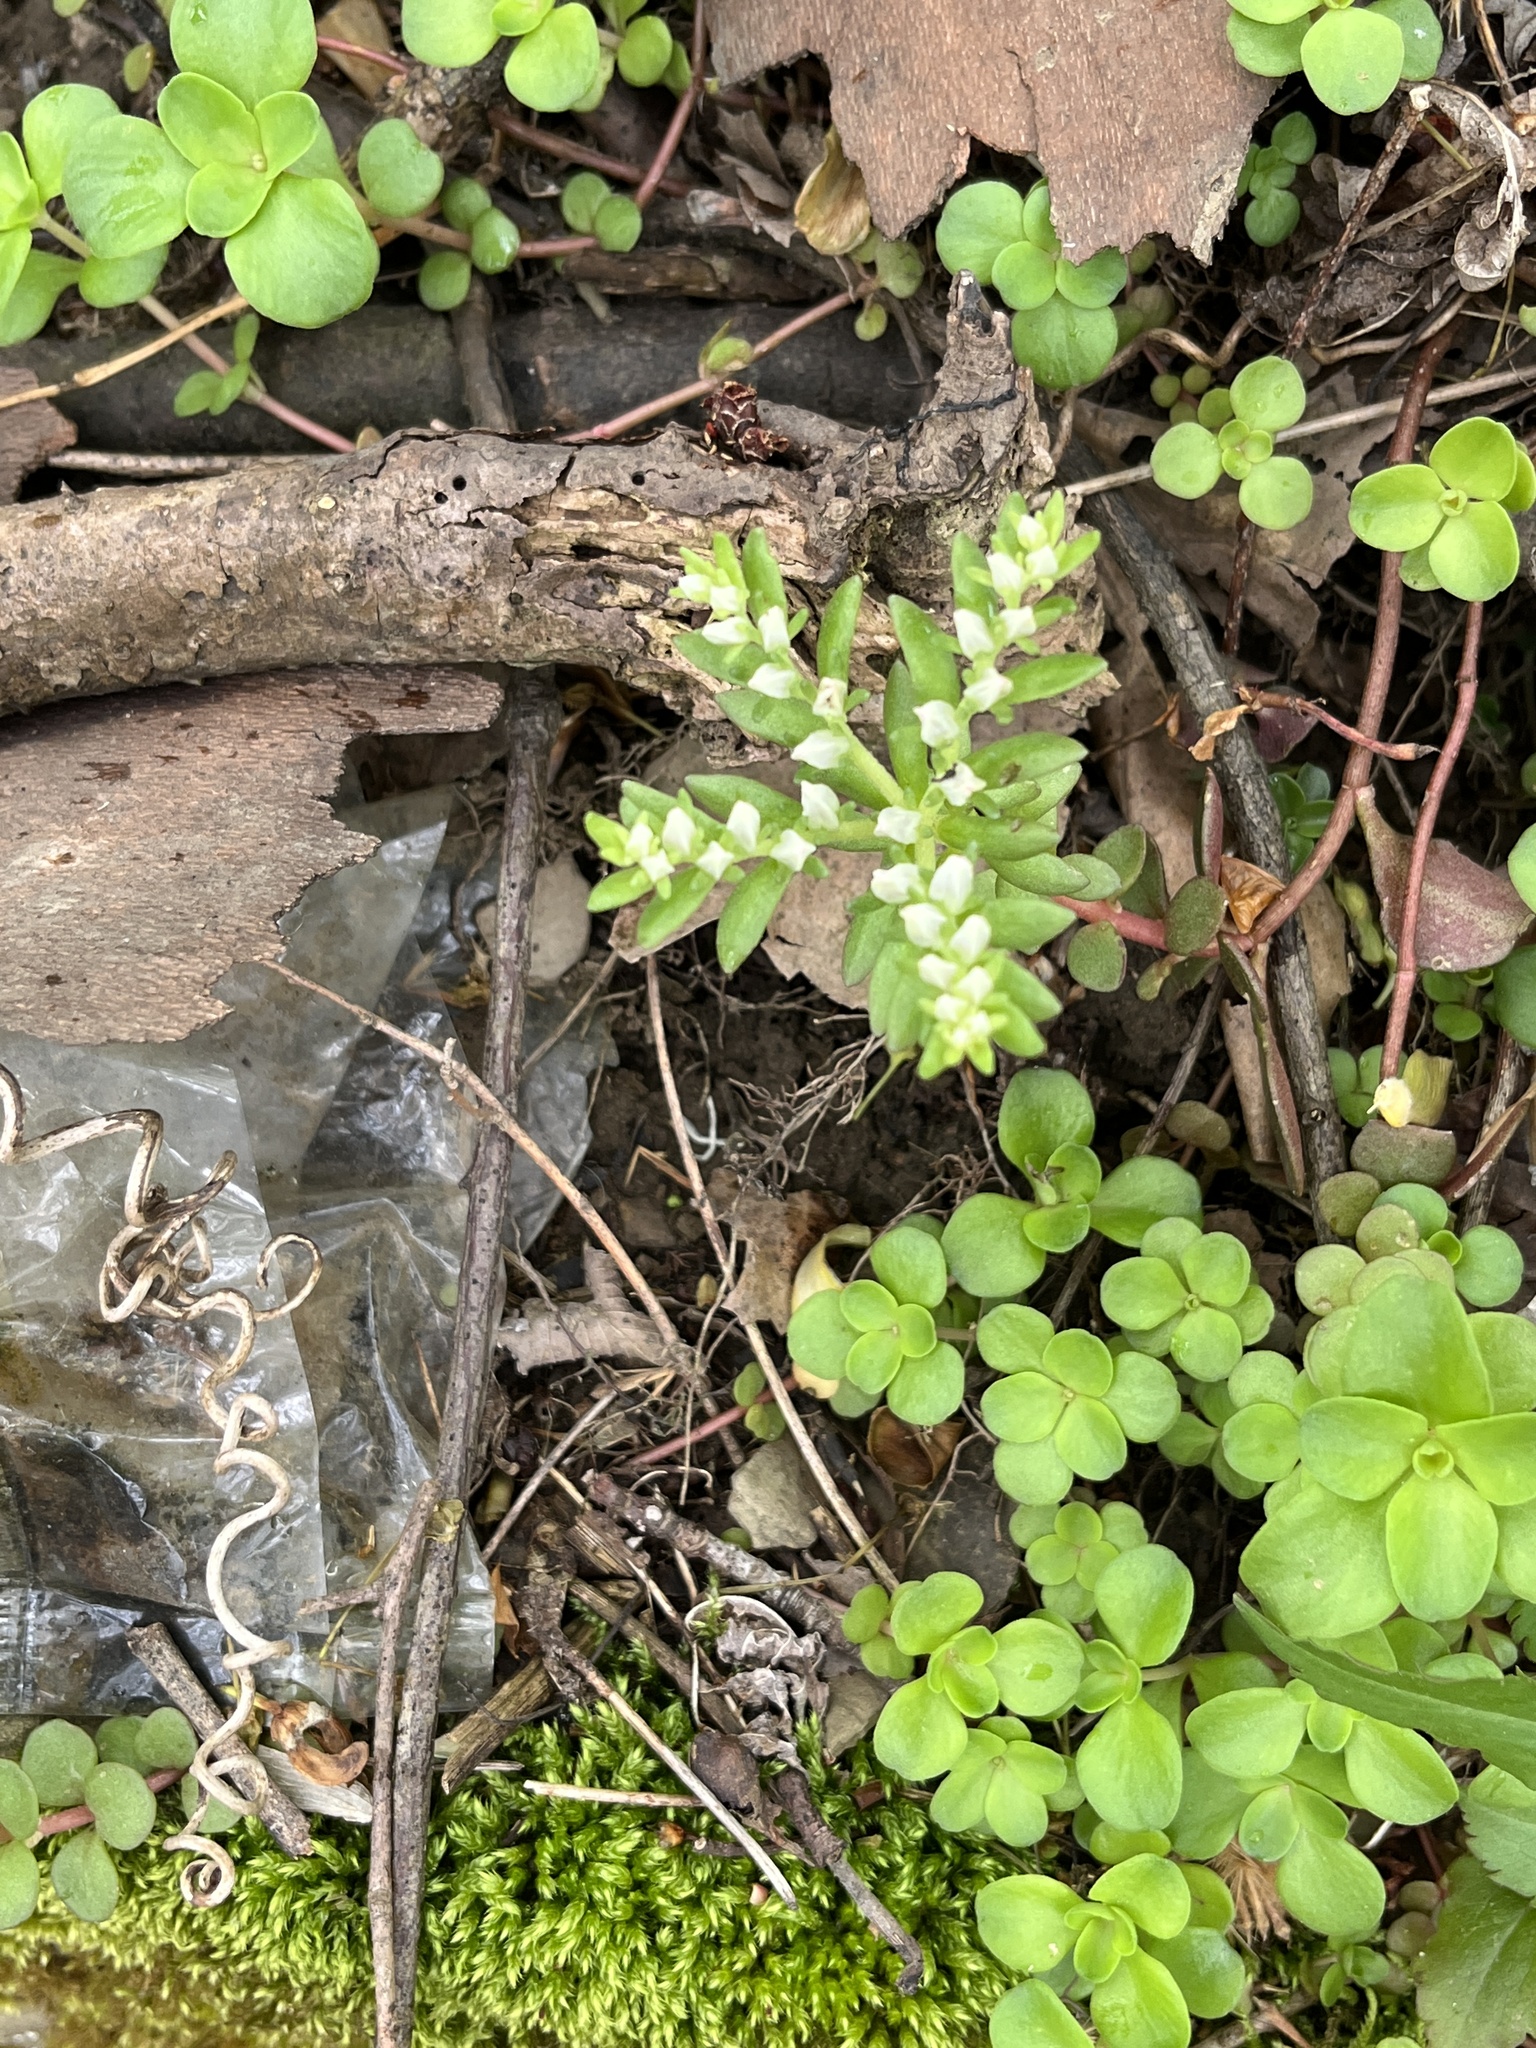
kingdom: Plantae
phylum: Tracheophyta
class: Magnoliopsida
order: Saxifragales
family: Crassulaceae
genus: Sedum
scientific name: Sedum ternatum
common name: Wild stonecrop
